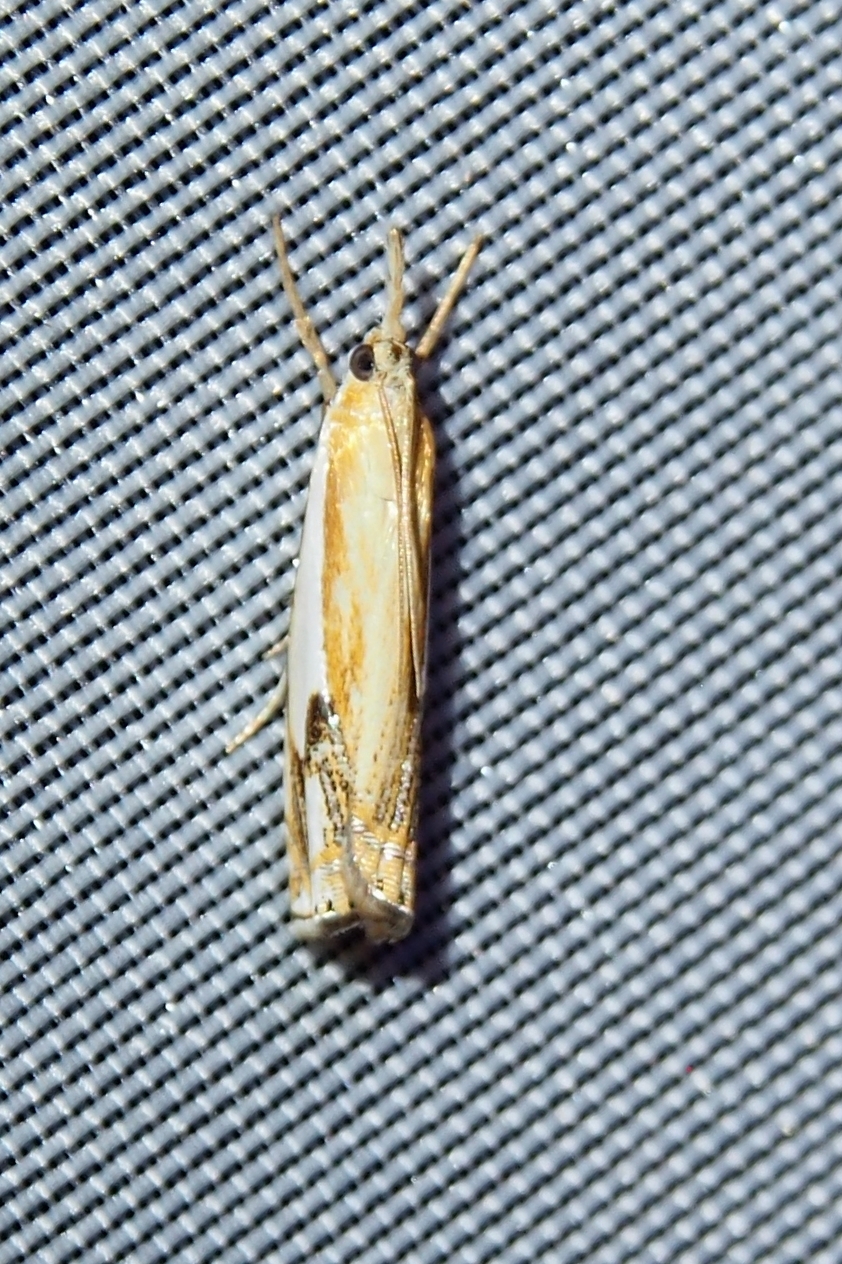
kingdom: Animalia
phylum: Arthropoda
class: Insecta
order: Lepidoptera
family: Crambidae
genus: Crambus
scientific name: Crambus agitatellus
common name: Double-banded grass-veneer
